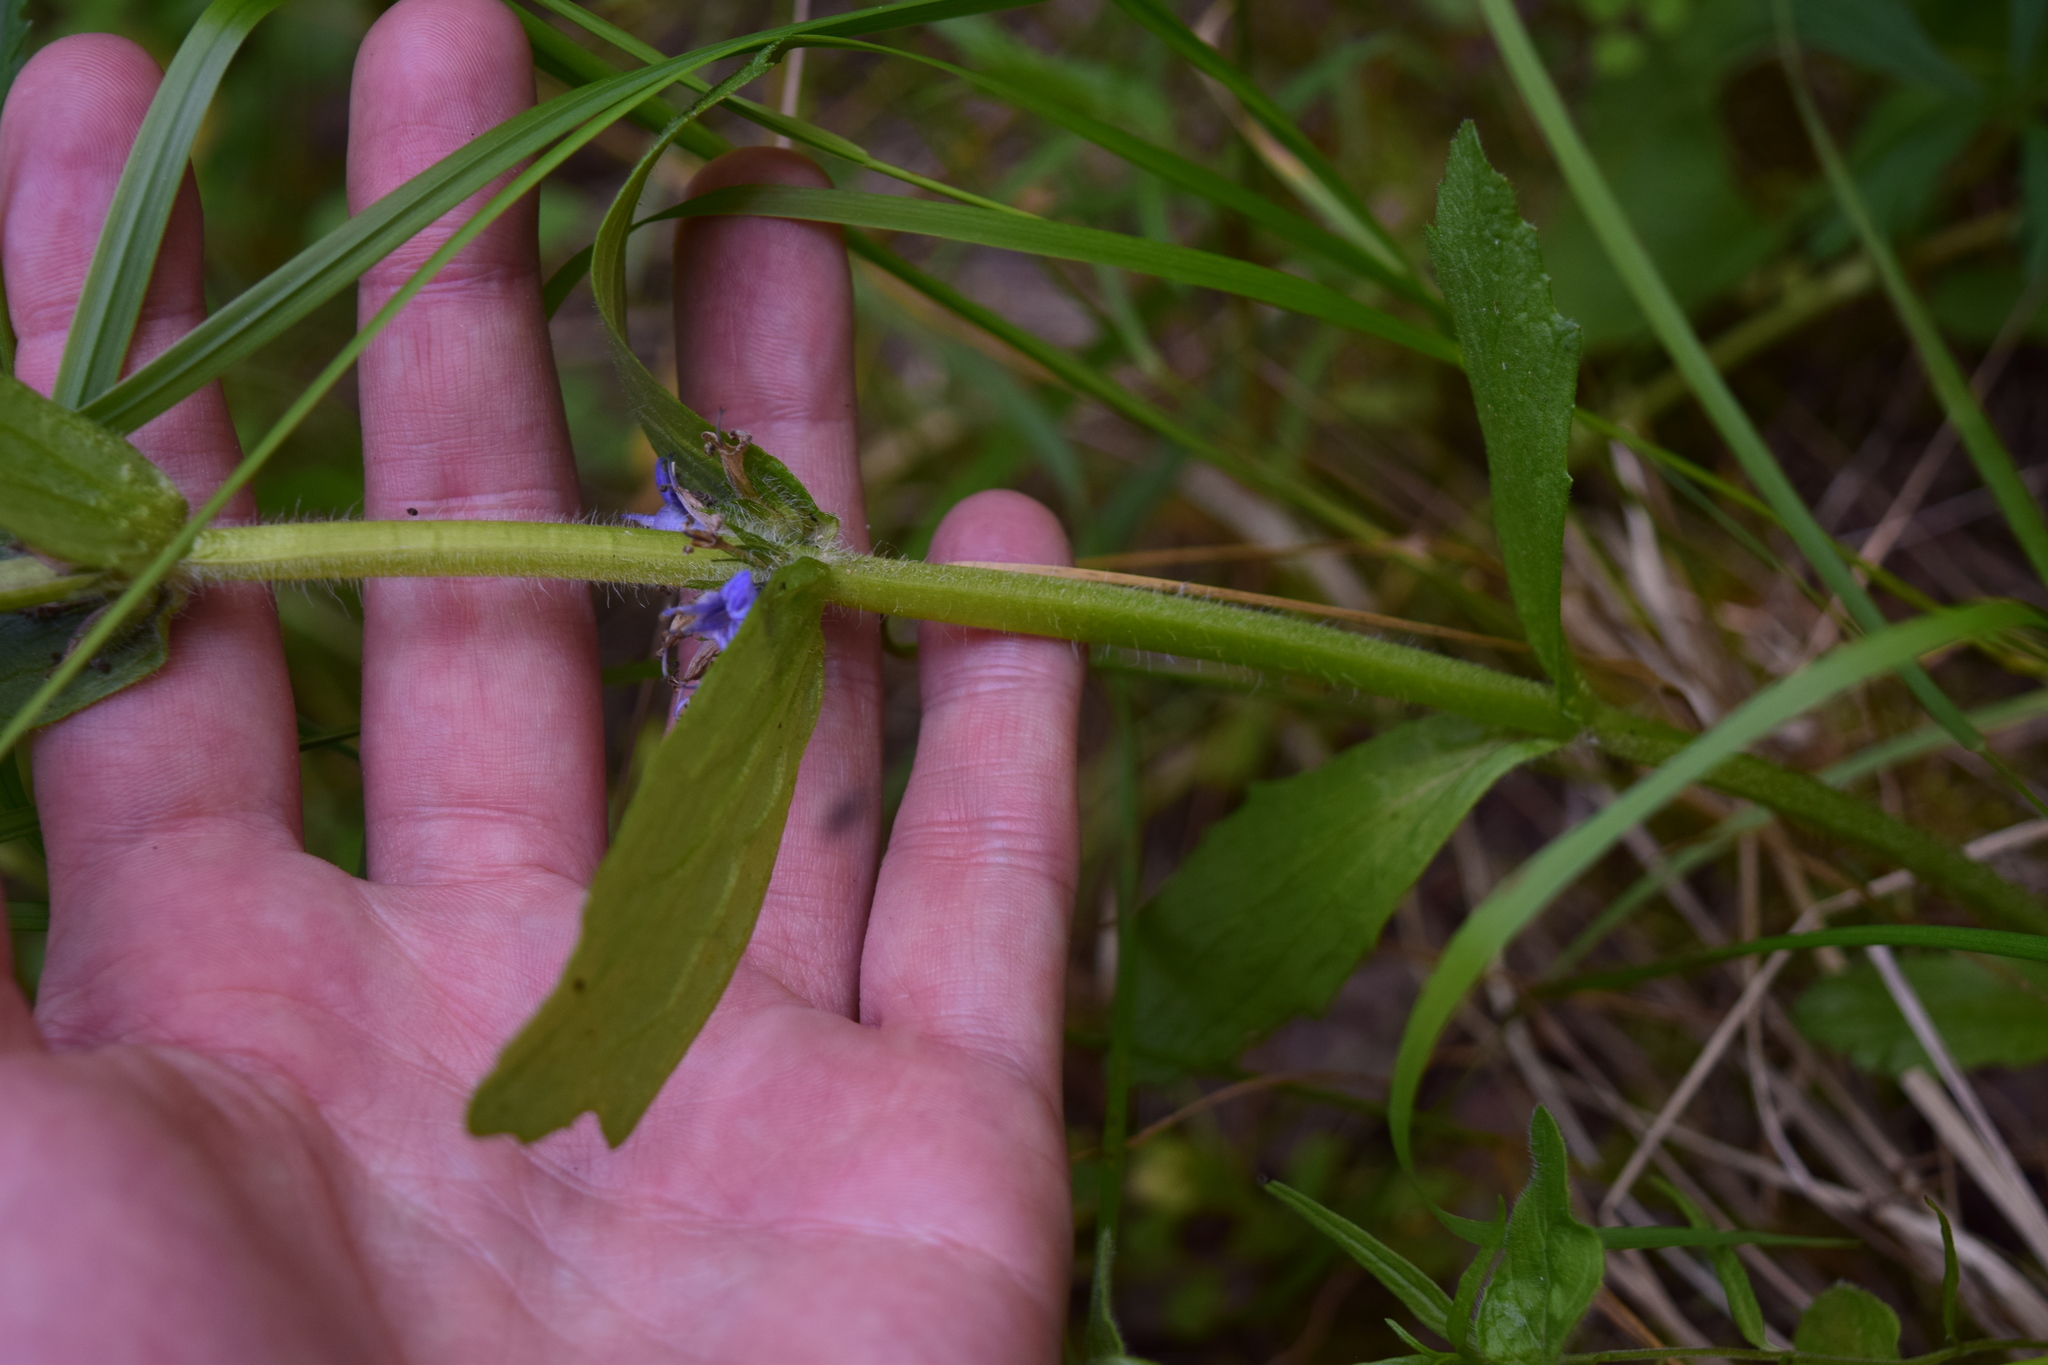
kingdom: Plantae
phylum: Tracheophyta
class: Magnoliopsida
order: Lamiales
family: Lamiaceae
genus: Ajuga
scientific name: Ajuga genevensis
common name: Blue bugle
